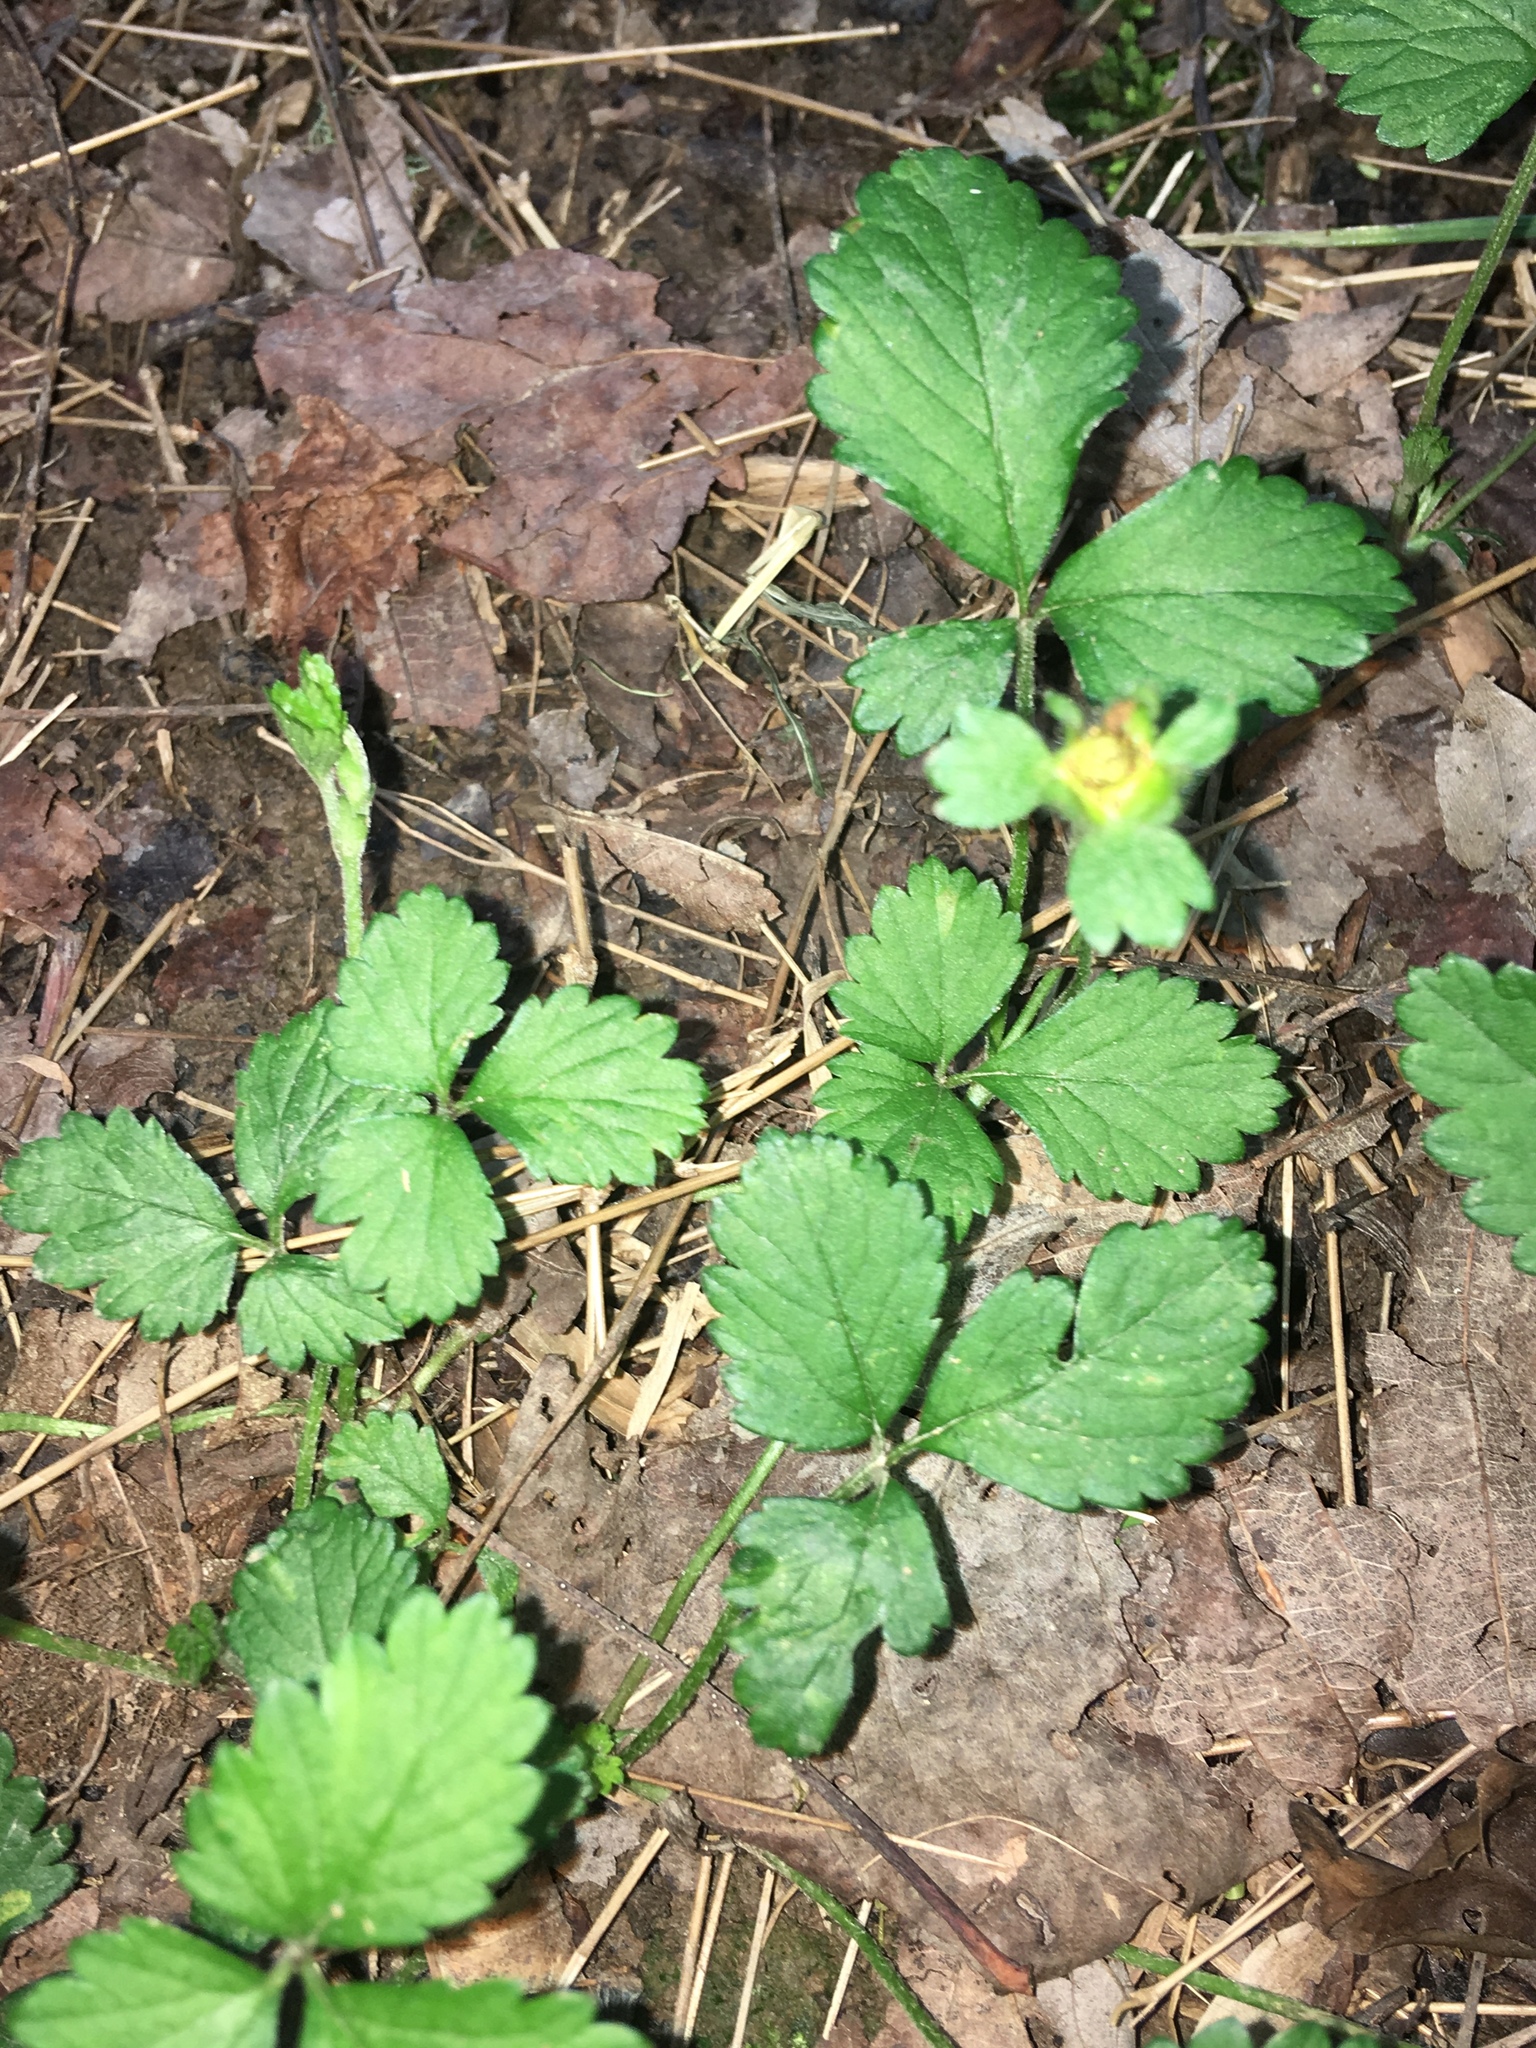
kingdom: Plantae
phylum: Tracheophyta
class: Magnoliopsida
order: Rosales
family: Rosaceae
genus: Potentilla
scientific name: Potentilla indica
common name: Yellow-flowered strawberry
